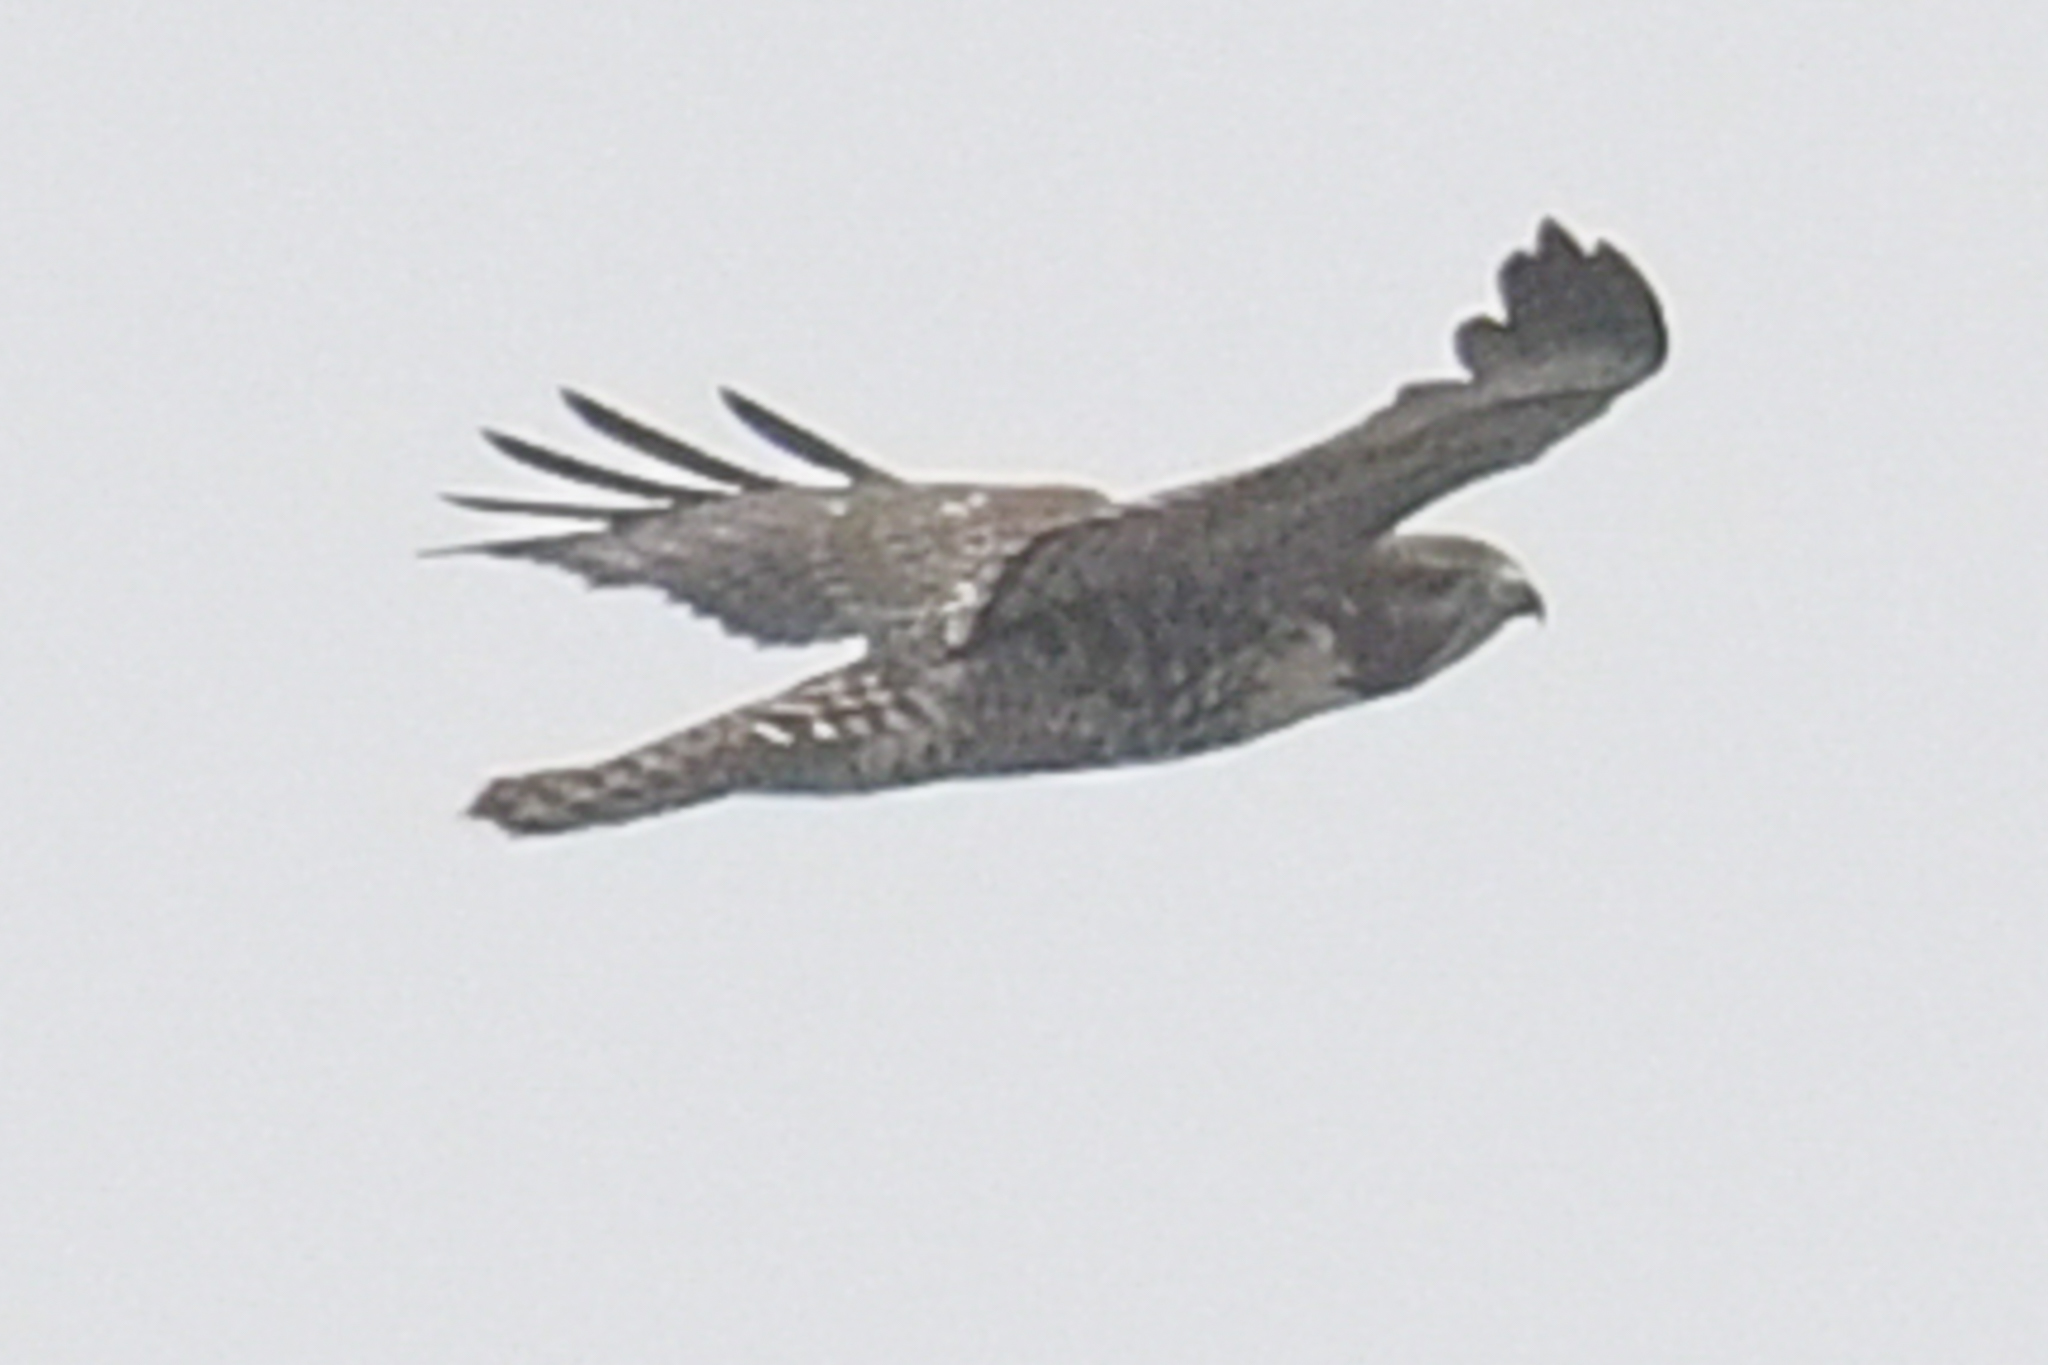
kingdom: Animalia
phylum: Chordata
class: Aves
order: Accipitriformes
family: Accipitridae
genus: Buteo
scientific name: Buteo jamaicensis
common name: Red-tailed hawk
